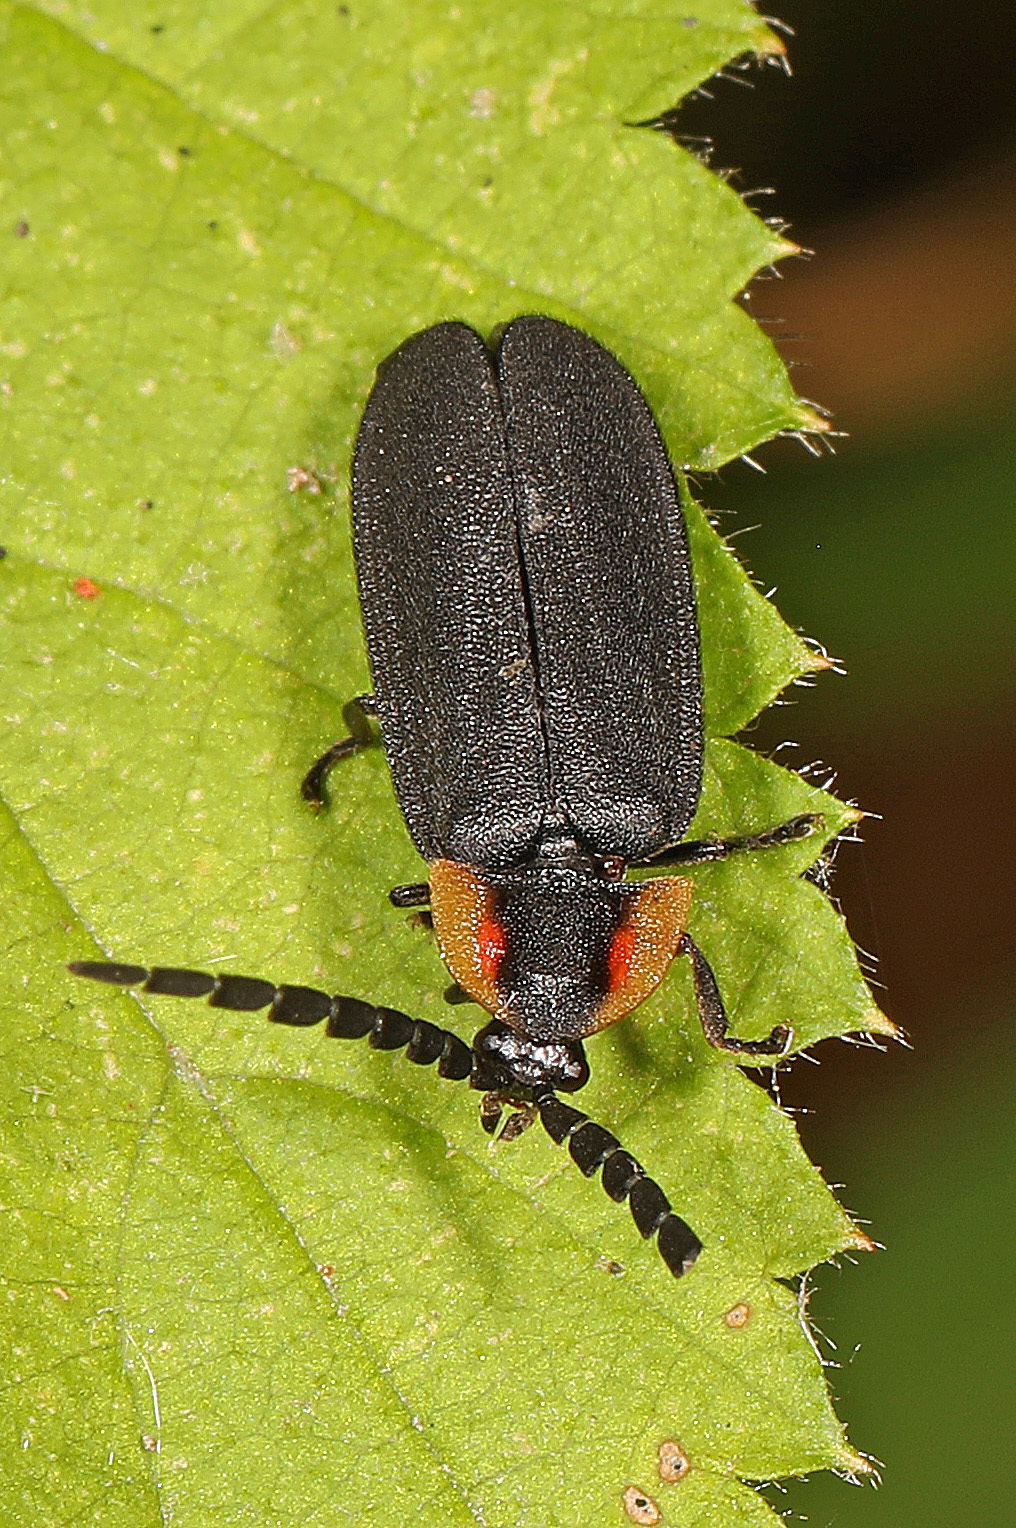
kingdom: Animalia
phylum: Arthropoda
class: Insecta
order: Coleoptera
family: Lampyridae
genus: Lucidota
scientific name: Lucidota atra
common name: Black firefly
